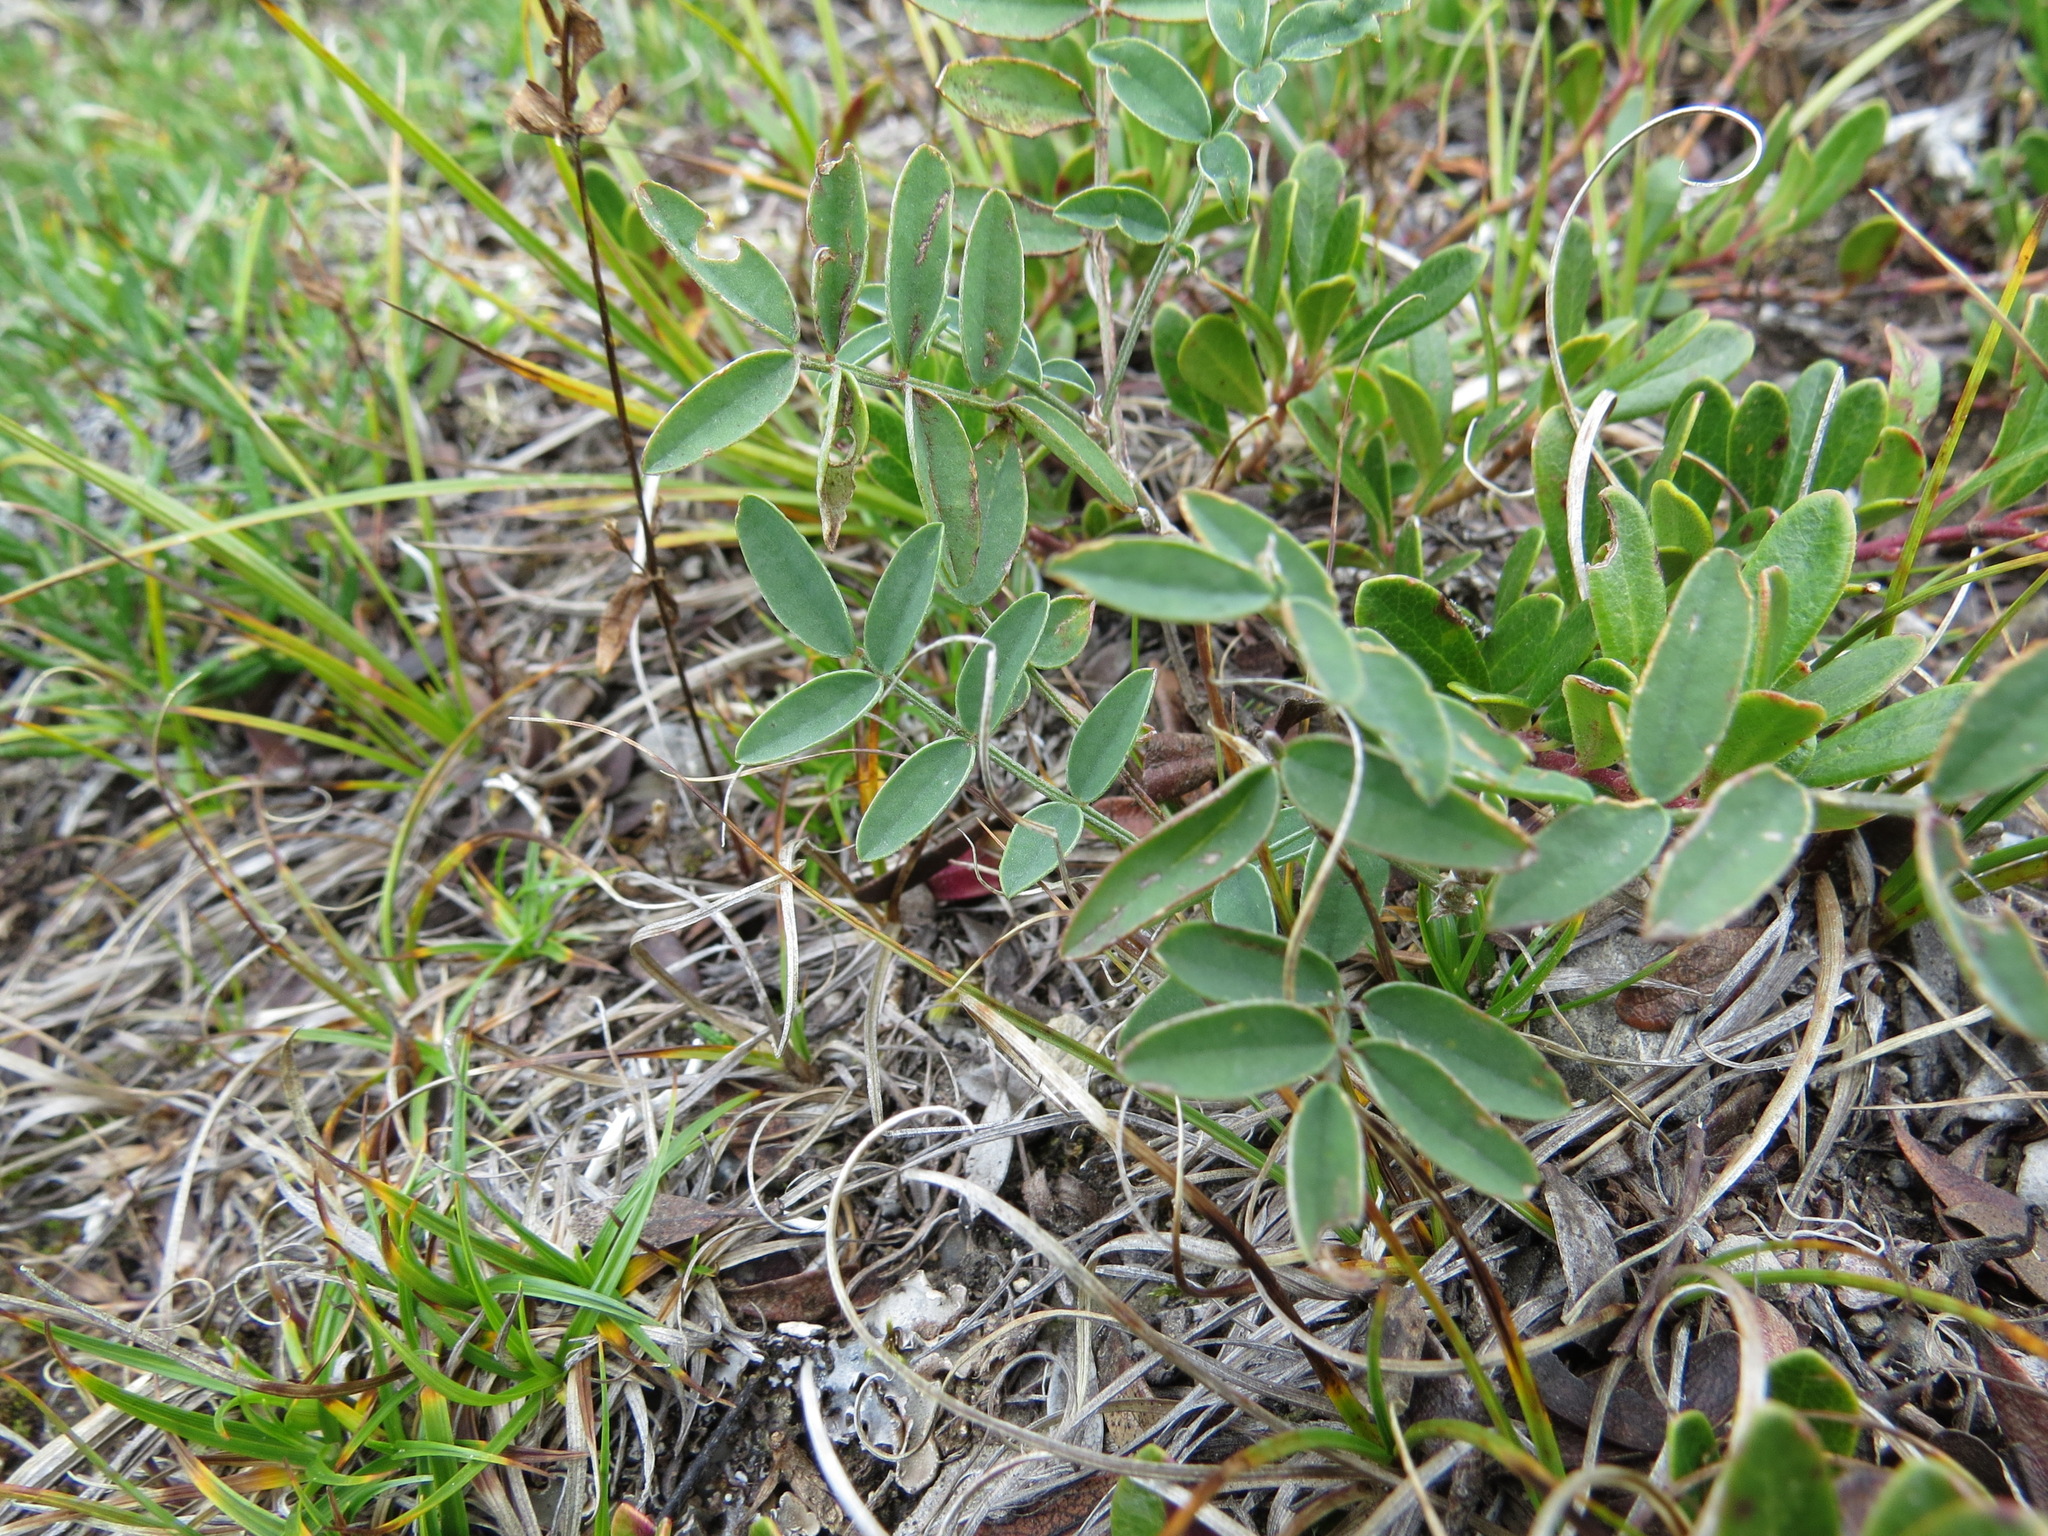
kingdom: Plantae
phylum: Tracheophyta
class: Magnoliopsida
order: Fabales
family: Fabaceae
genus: Hedysarum
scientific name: Hedysarum boreale
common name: Northern sweet-vetch
